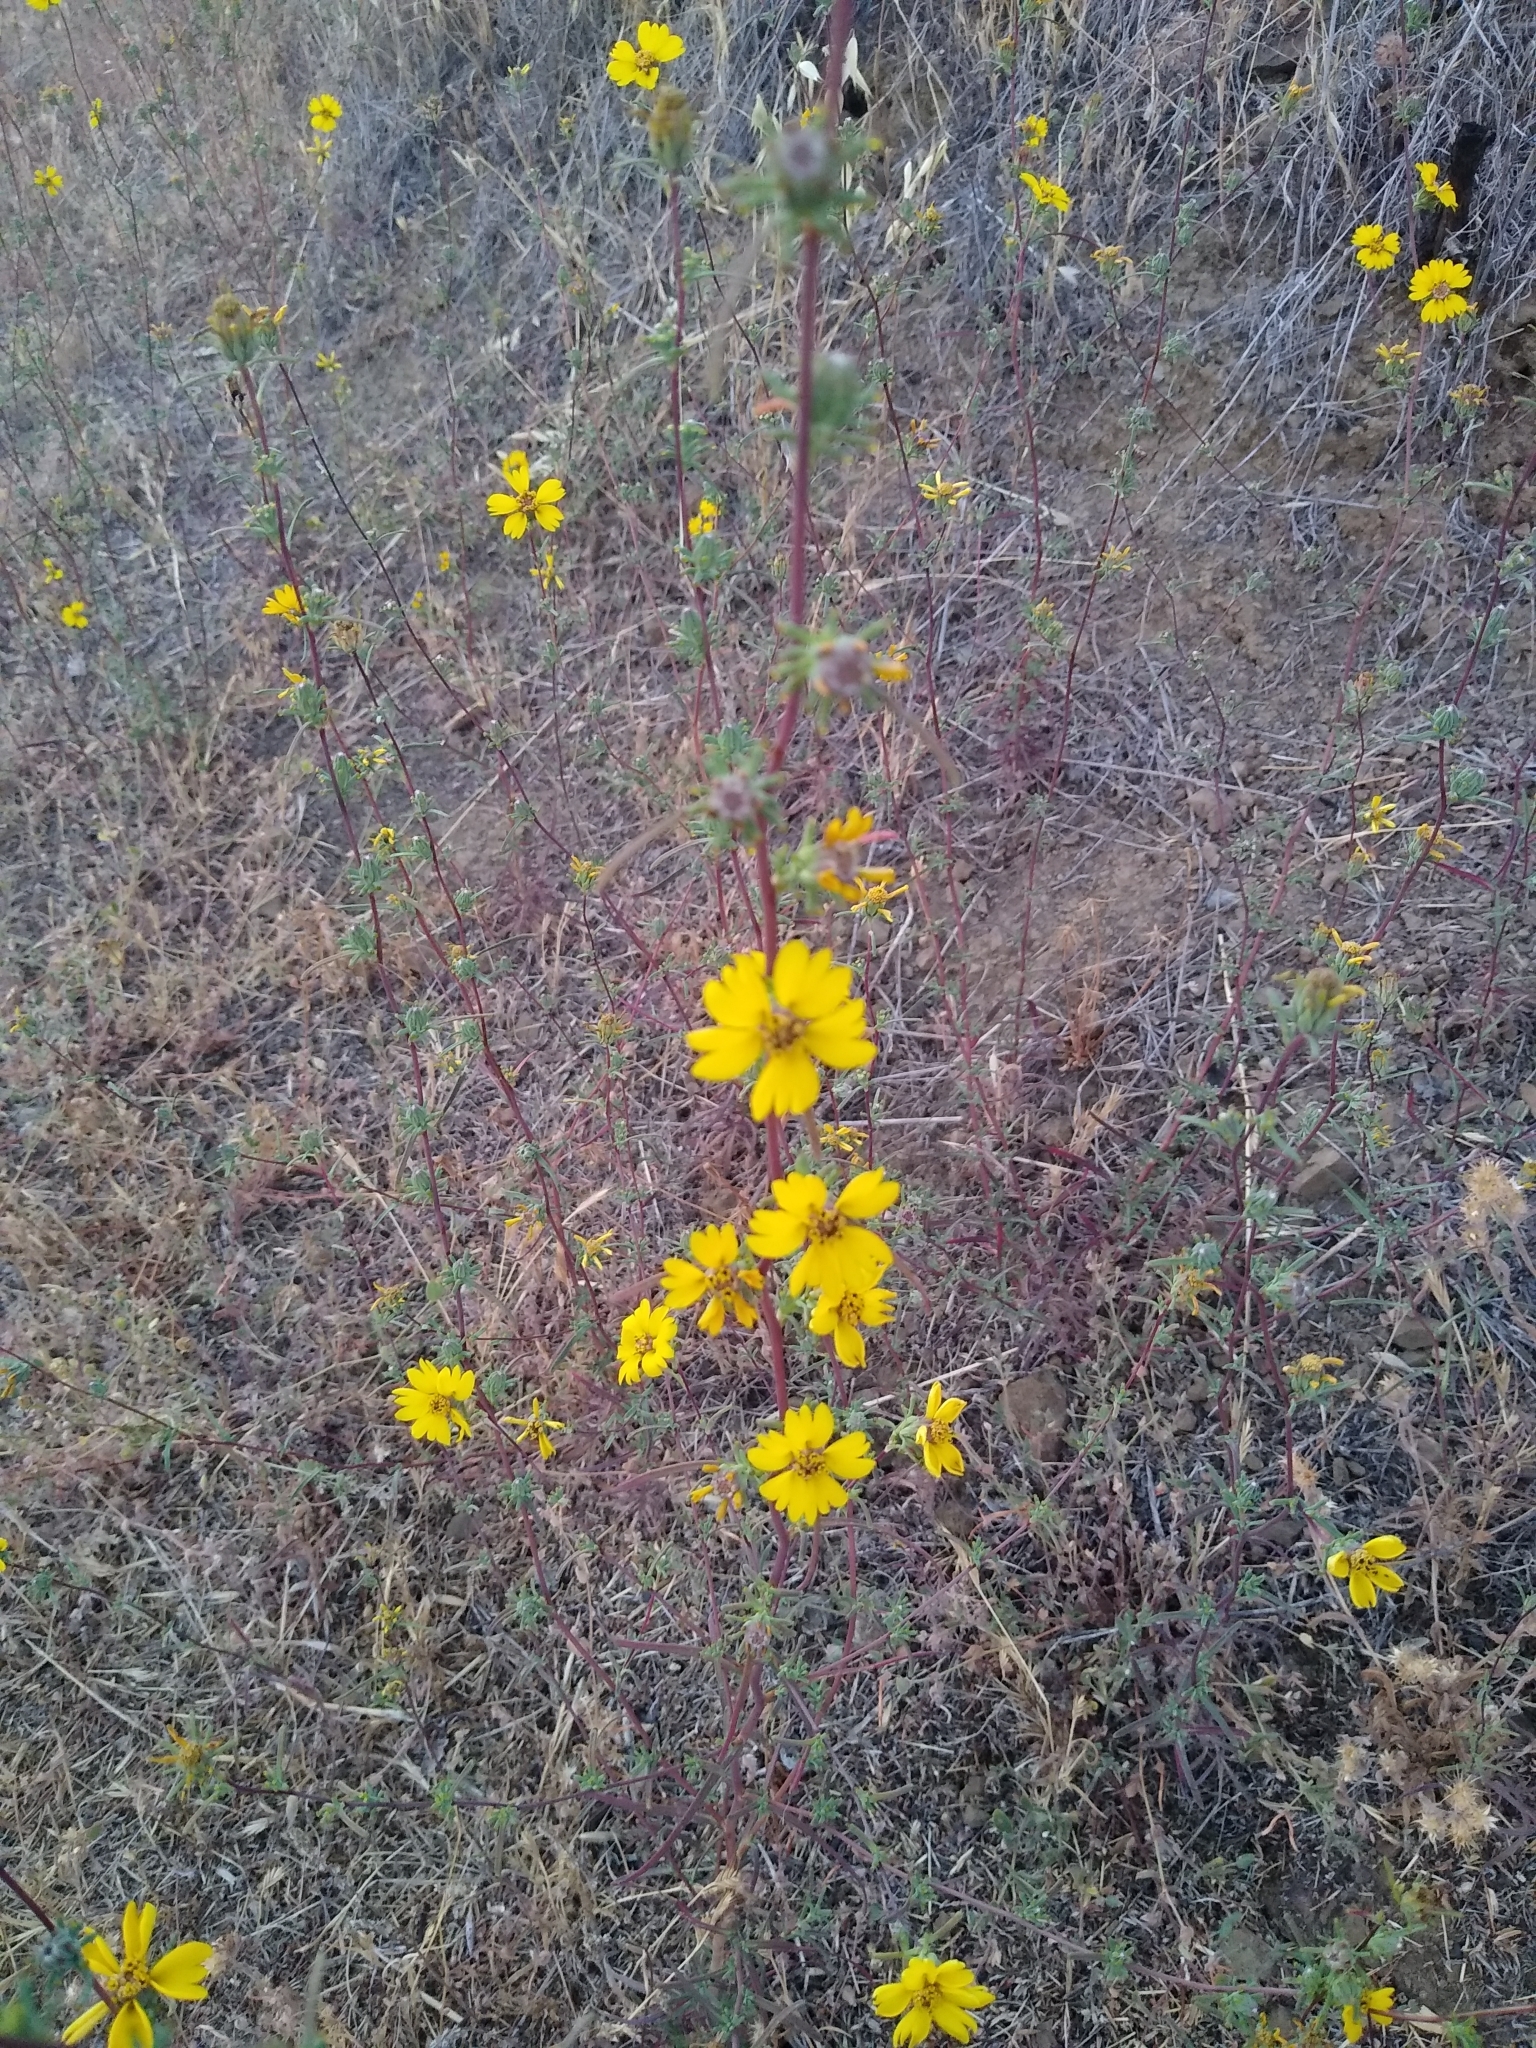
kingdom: Plantae
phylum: Tracheophyta
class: Magnoliopsida
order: Asterales
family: Asteraceae
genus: Calycadenia
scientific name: Calycadenia truncata
